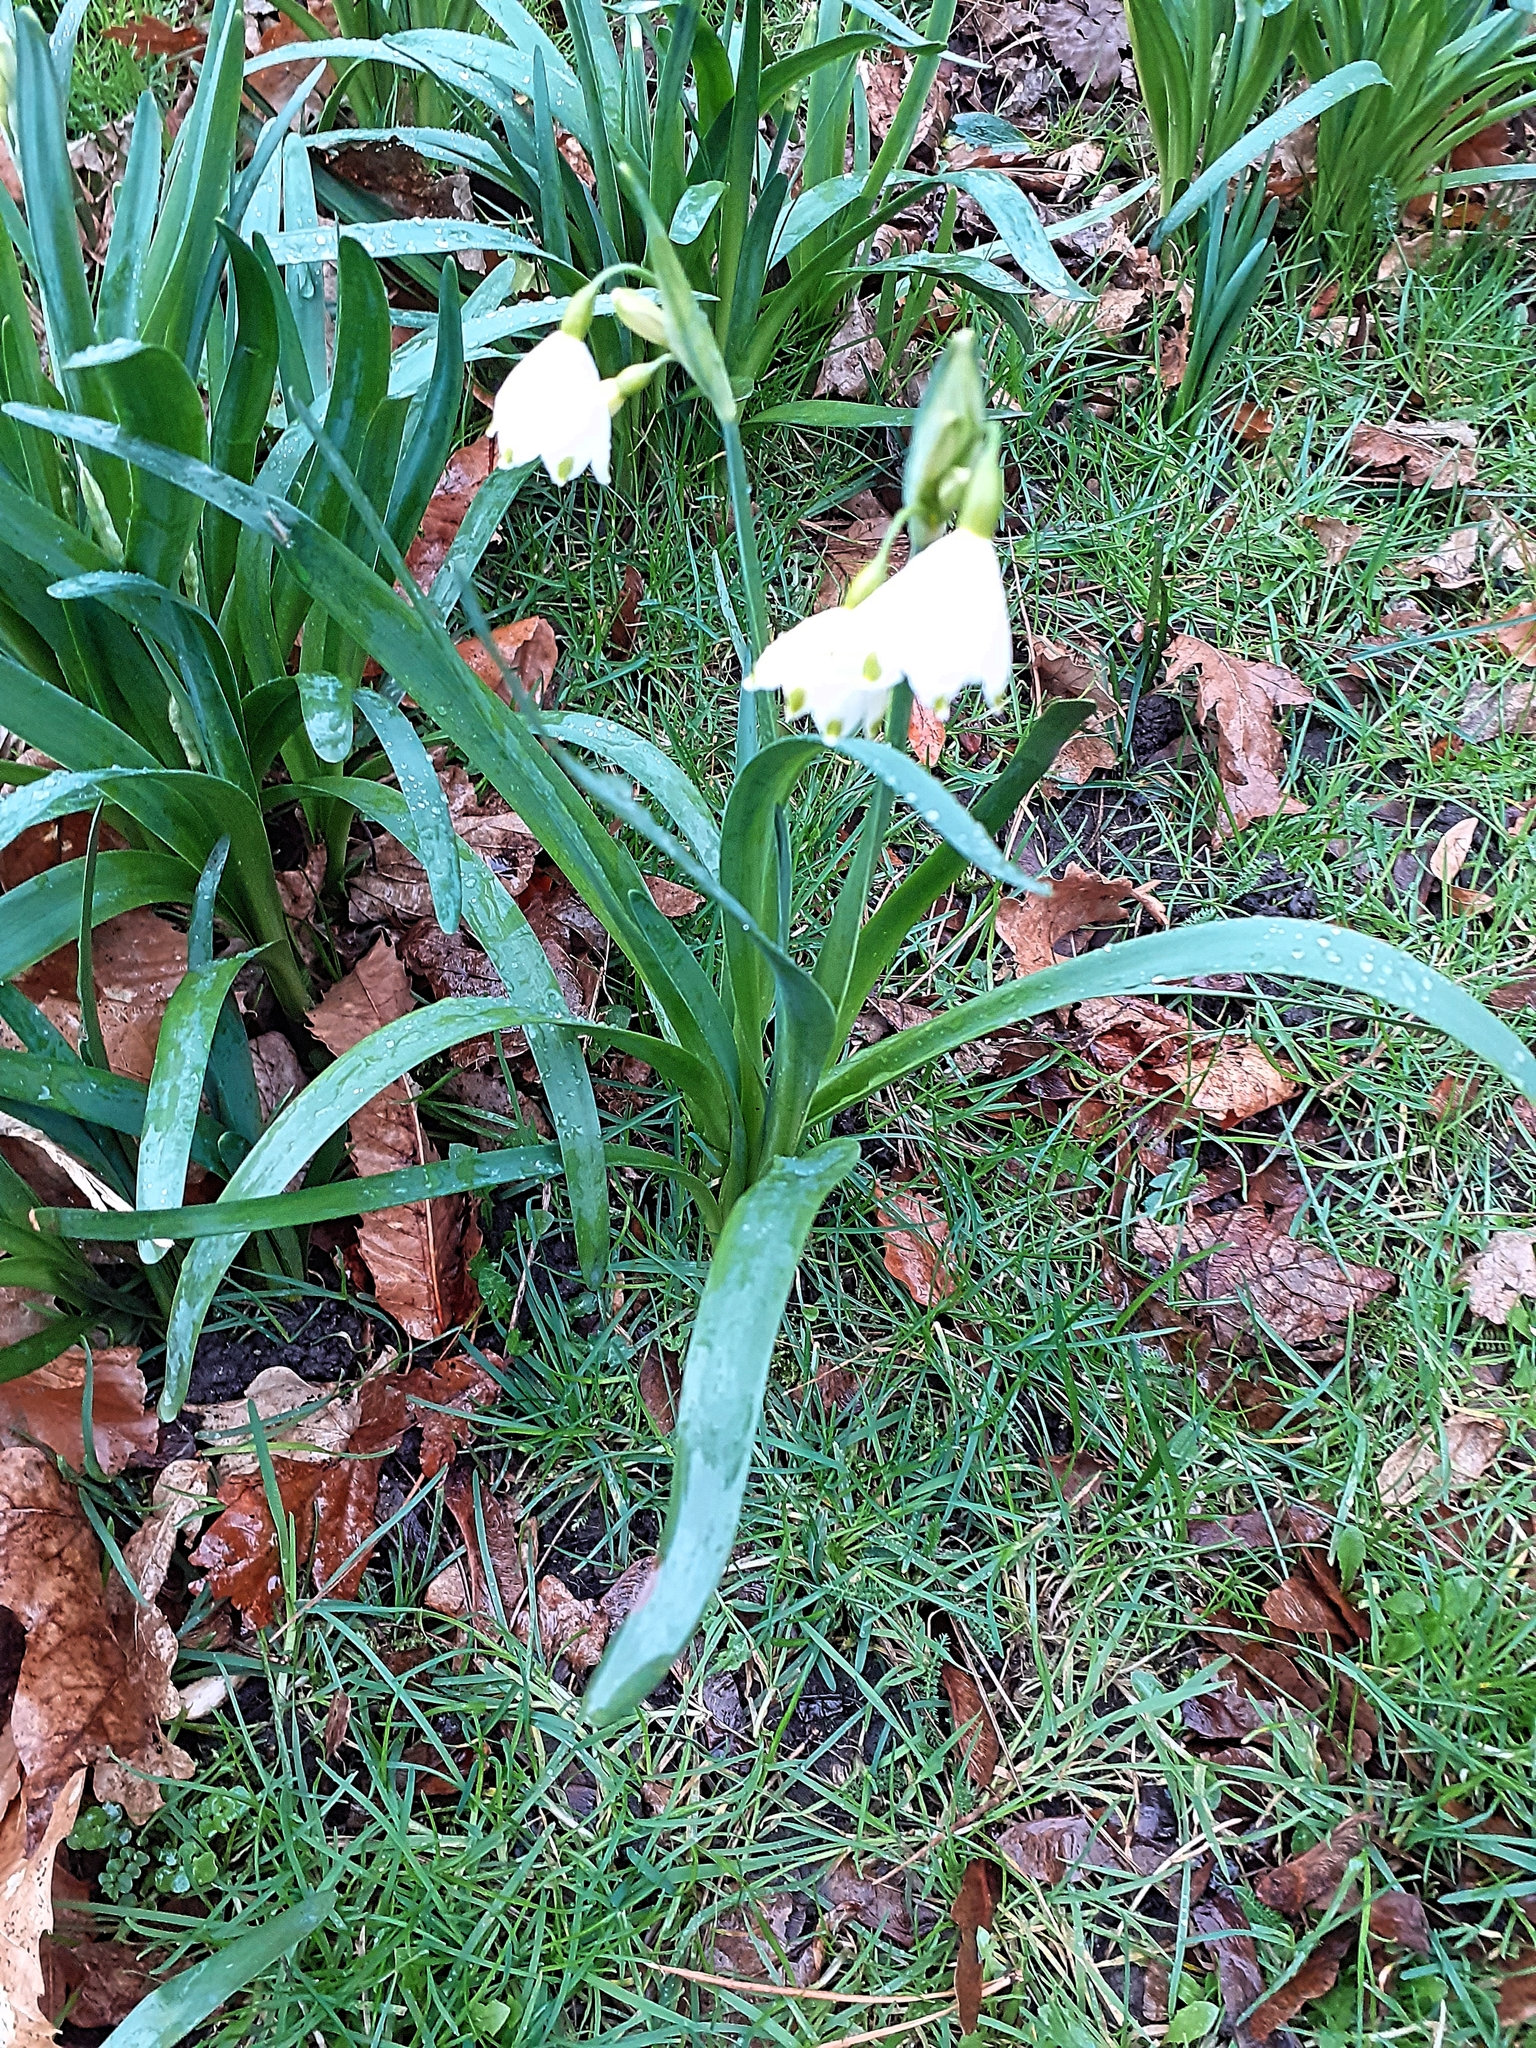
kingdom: Plantae
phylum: Tracheophyta
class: Liliopsida
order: Asparagales
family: Amaryllidaceae
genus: Leucojum
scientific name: Leucojum aestivum
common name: Summer snowflake
